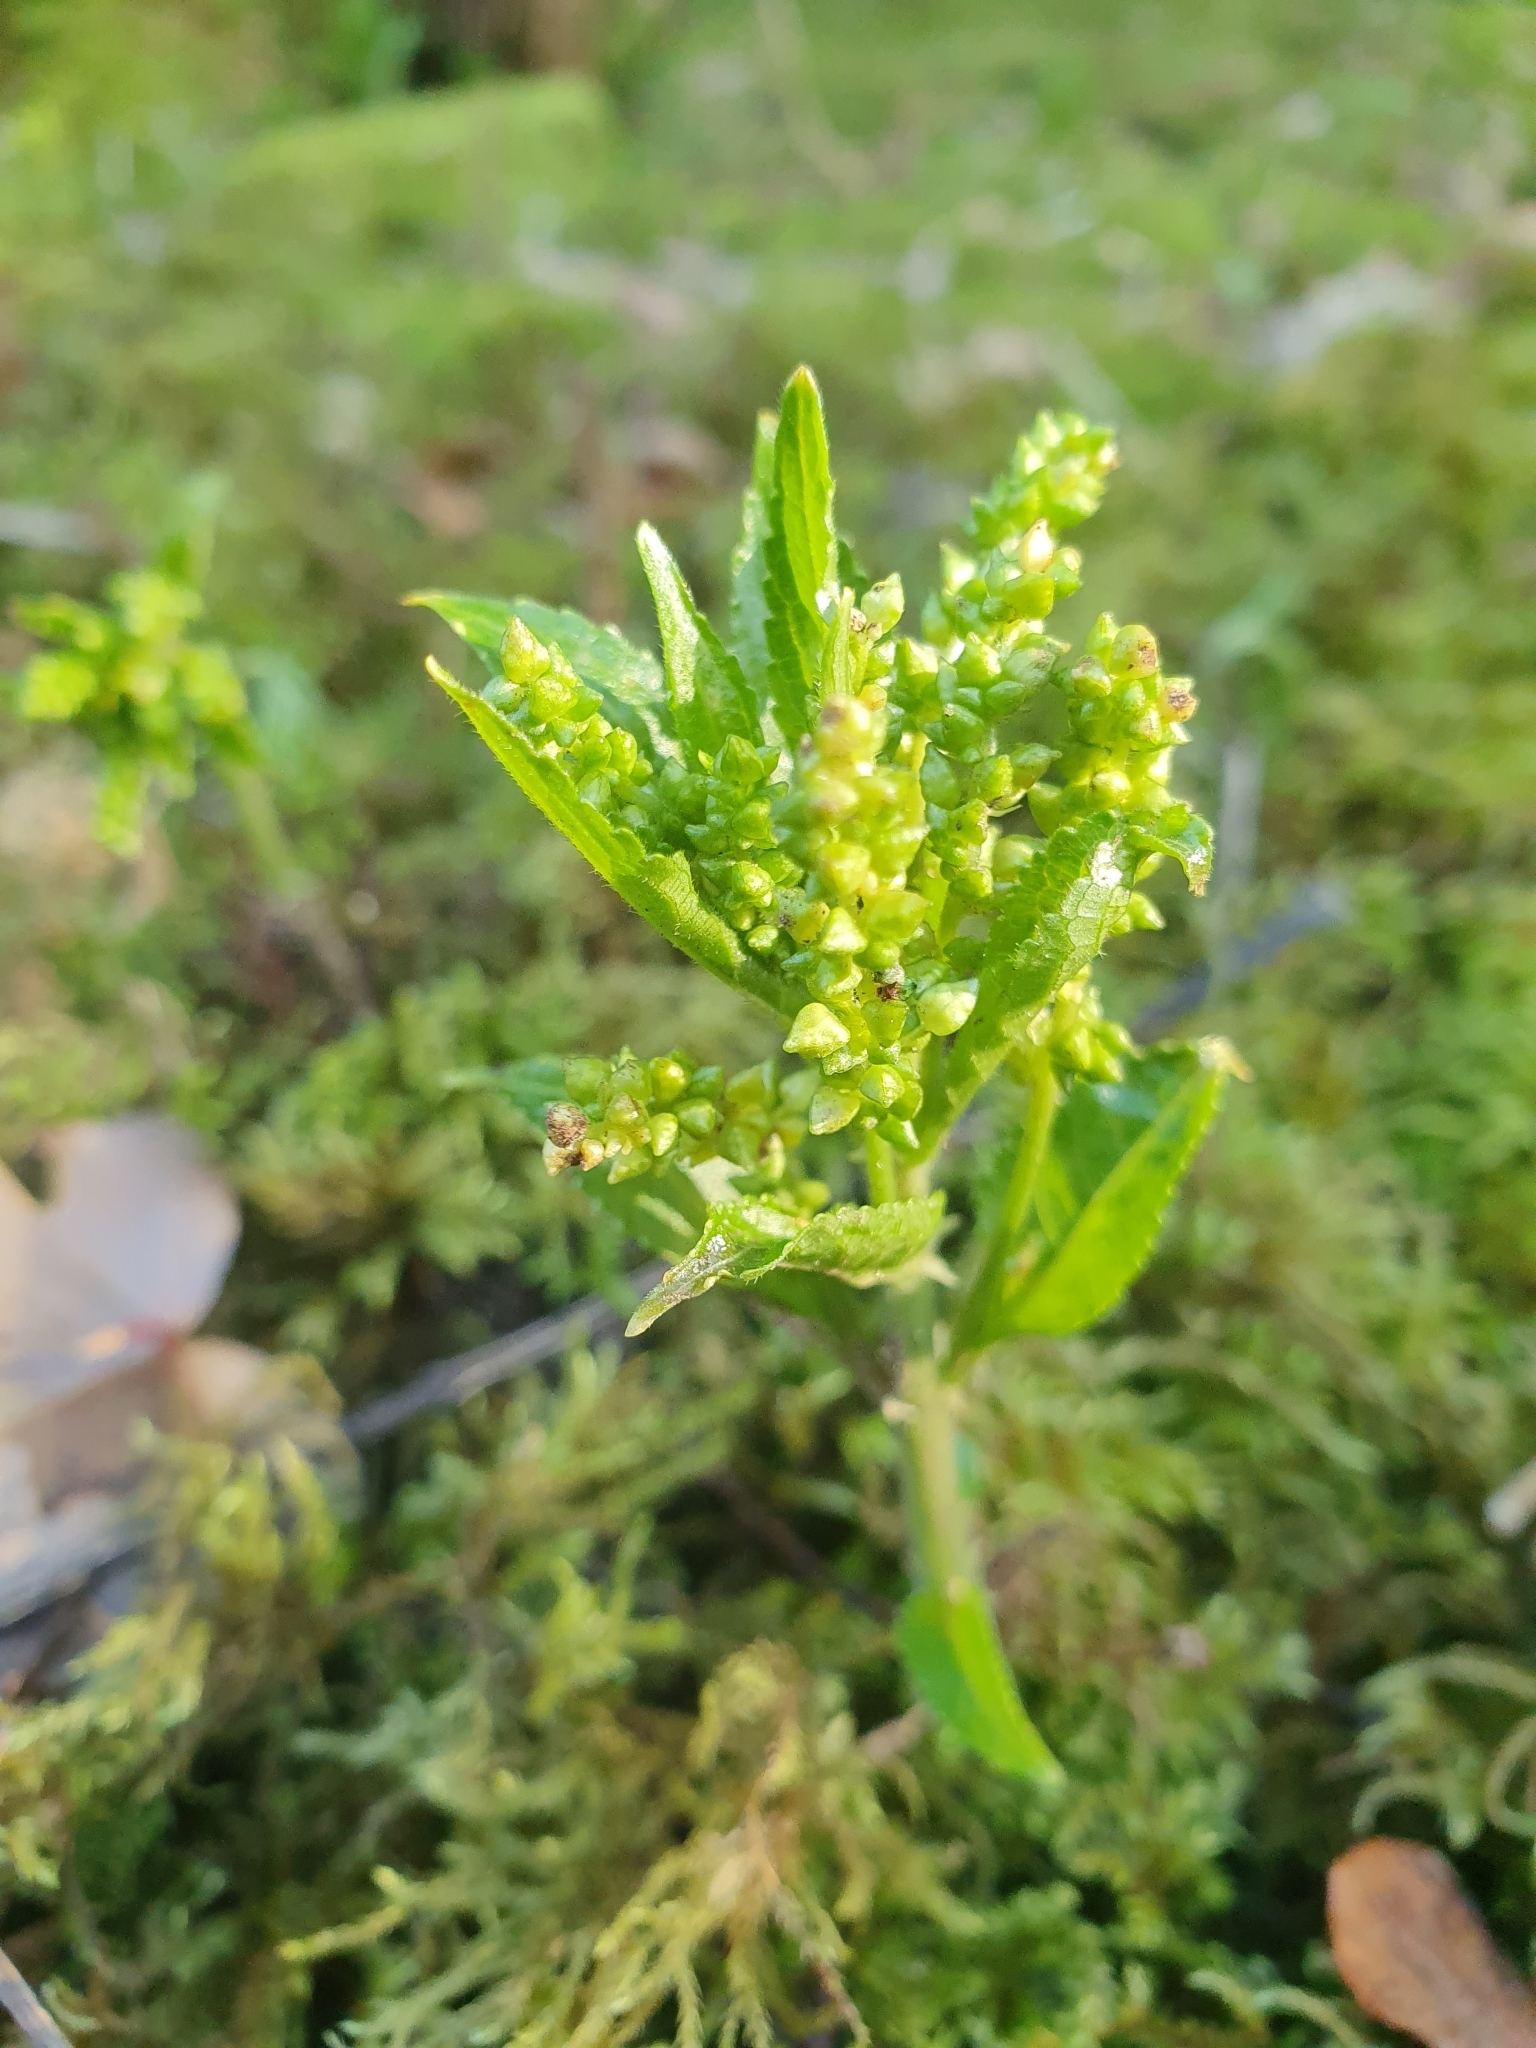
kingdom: Plantae
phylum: Tracheophyta
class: Magnoliopsida
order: Malpighiales
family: Euphorbiaceae
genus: Mercurialis
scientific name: Mercurialis perennis
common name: Dog mercury
